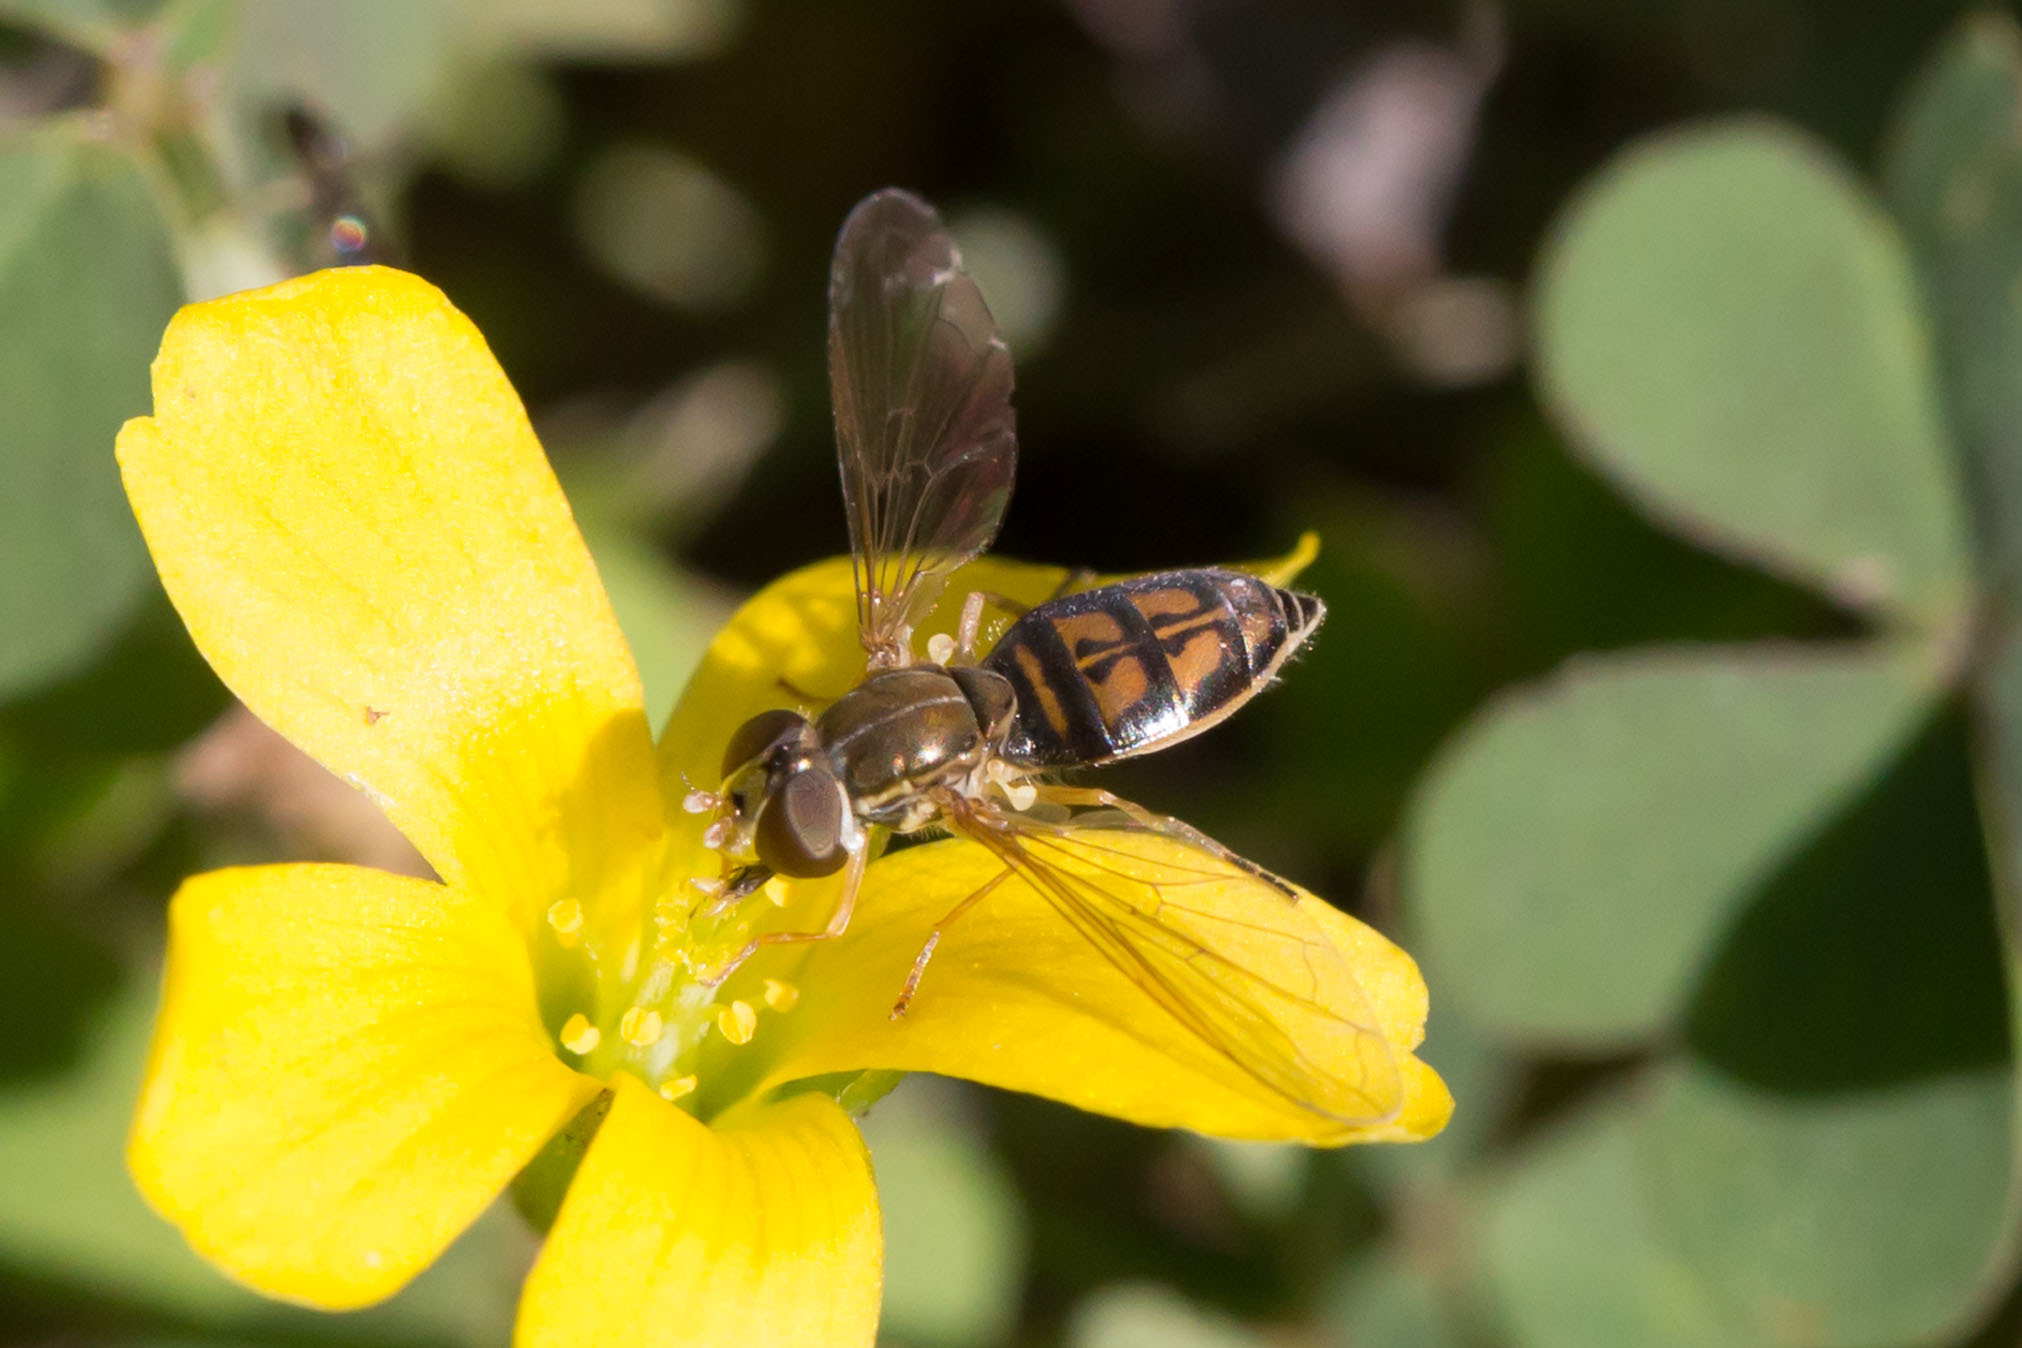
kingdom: Animalia
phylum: Arthropoda
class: Insecta
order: Diptera
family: Syrphidae
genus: Toxomerus
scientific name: Toxomerus marginatus
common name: Syrphid fly
